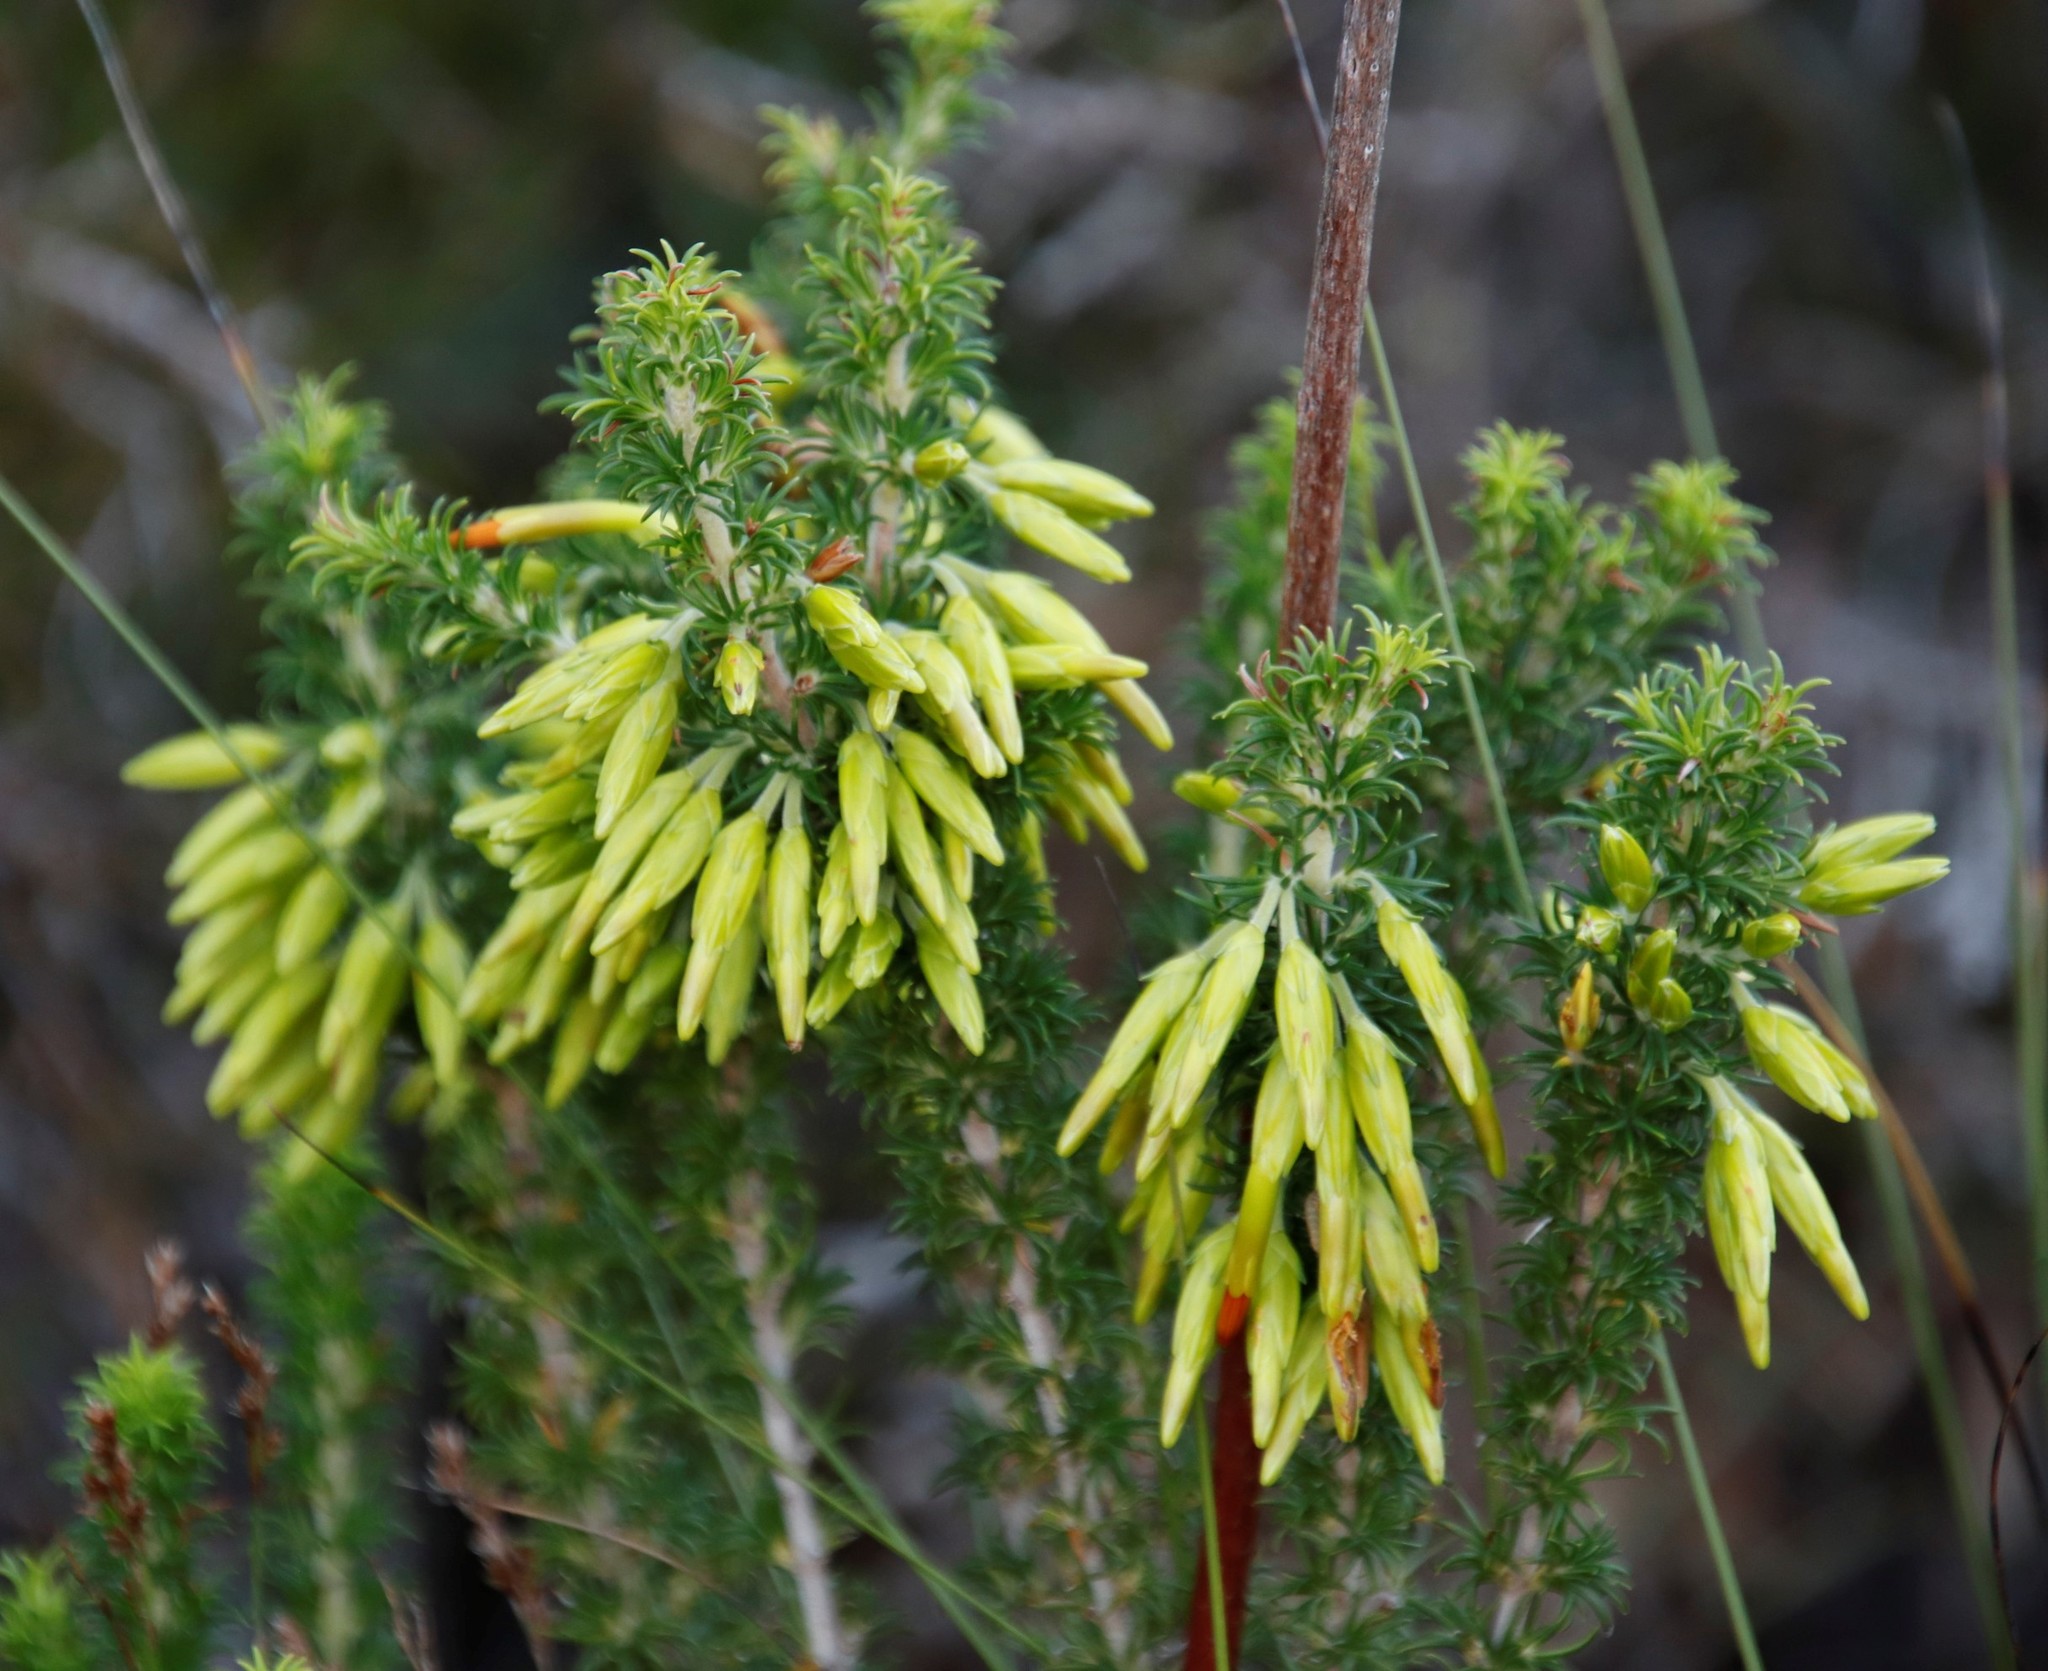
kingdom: Plantae
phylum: Tracheophyta
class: Magnoliopsida
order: Ericales
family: Ericaceae
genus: Erica
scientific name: Erica coccinea
